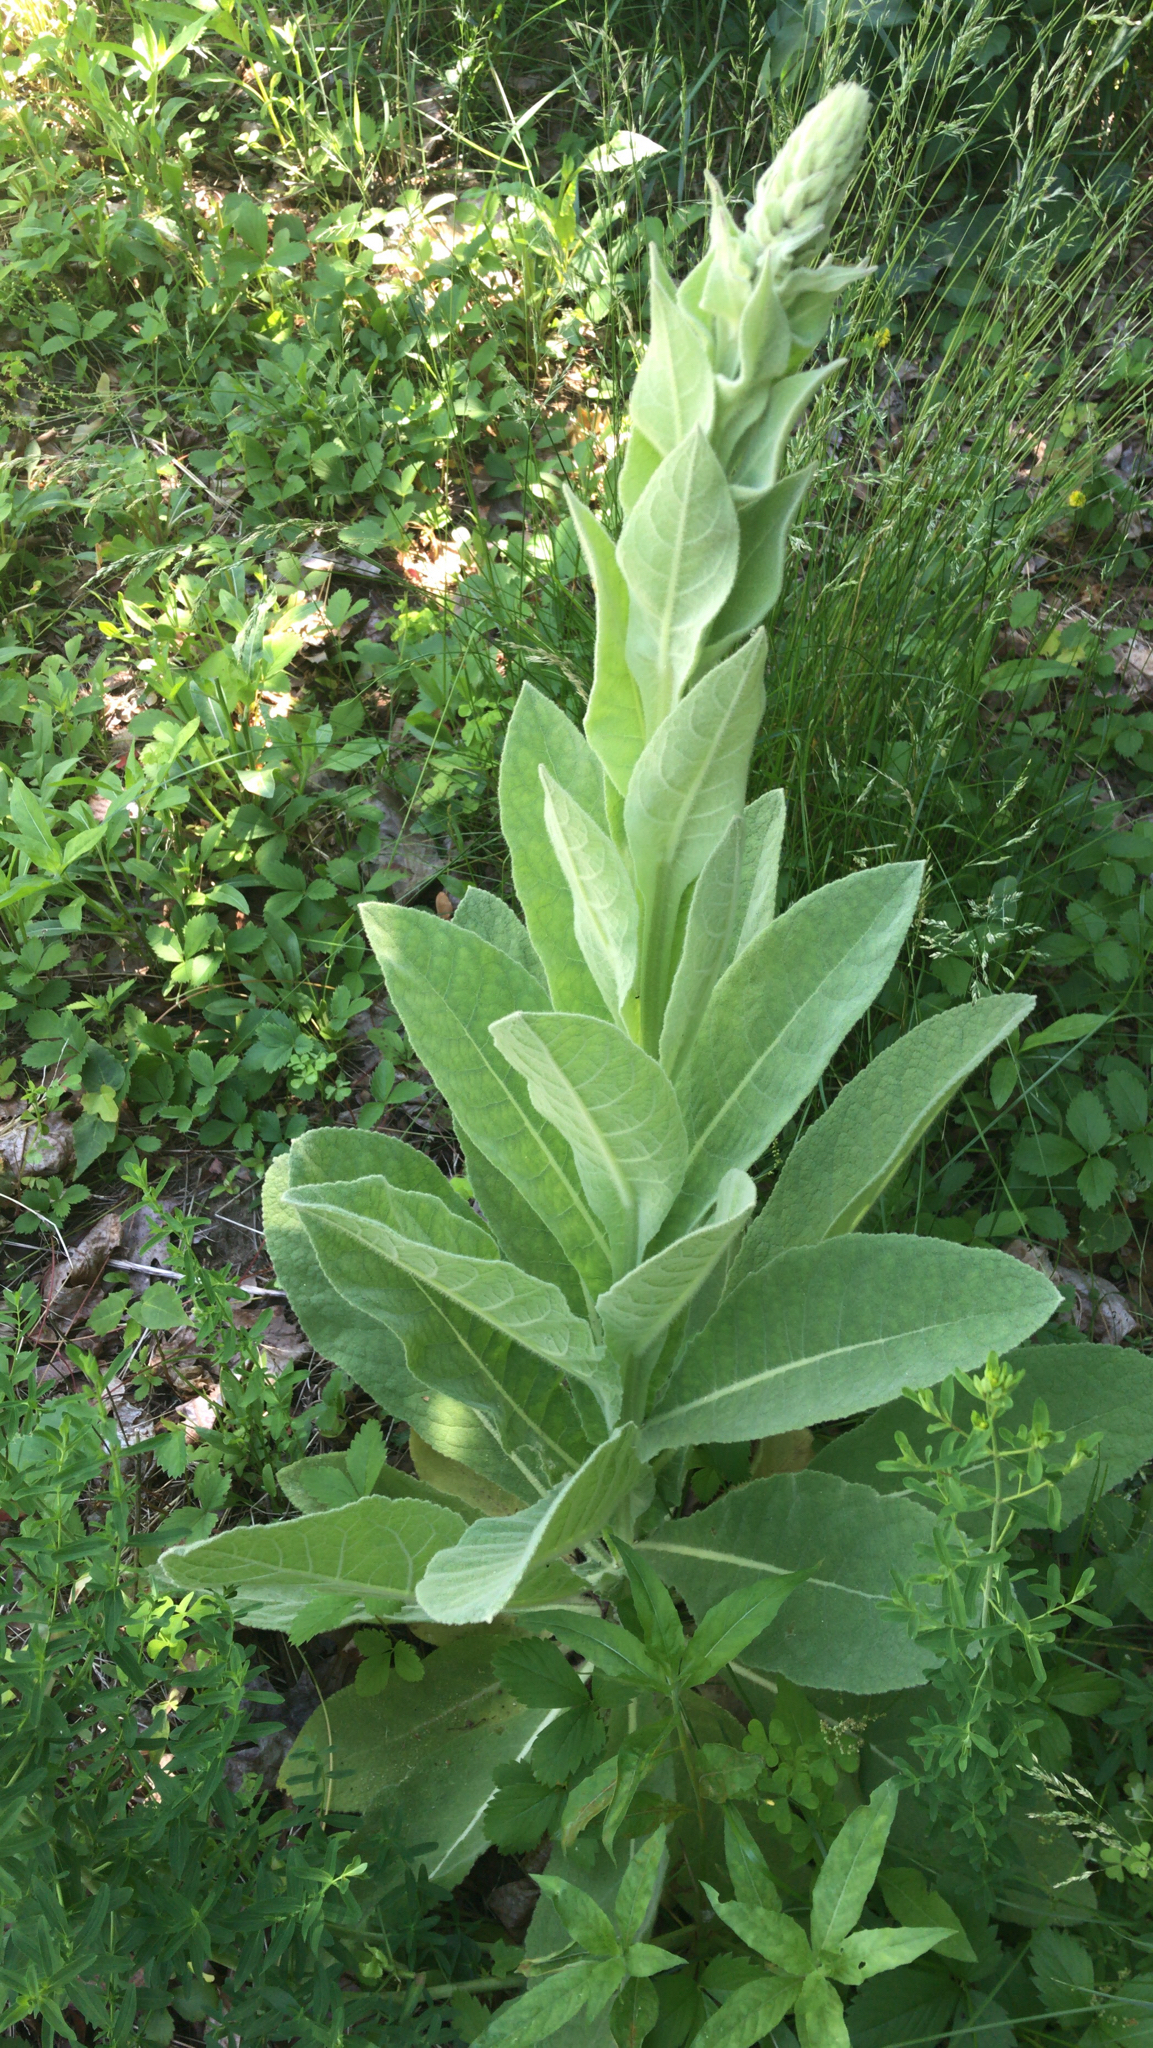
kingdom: Plantae
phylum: Tracheophyta
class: Magnoliopsida
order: Lamiales
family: Scrophulariaceae
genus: Verbascum
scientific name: Verbascum thapsus
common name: Common mullein
